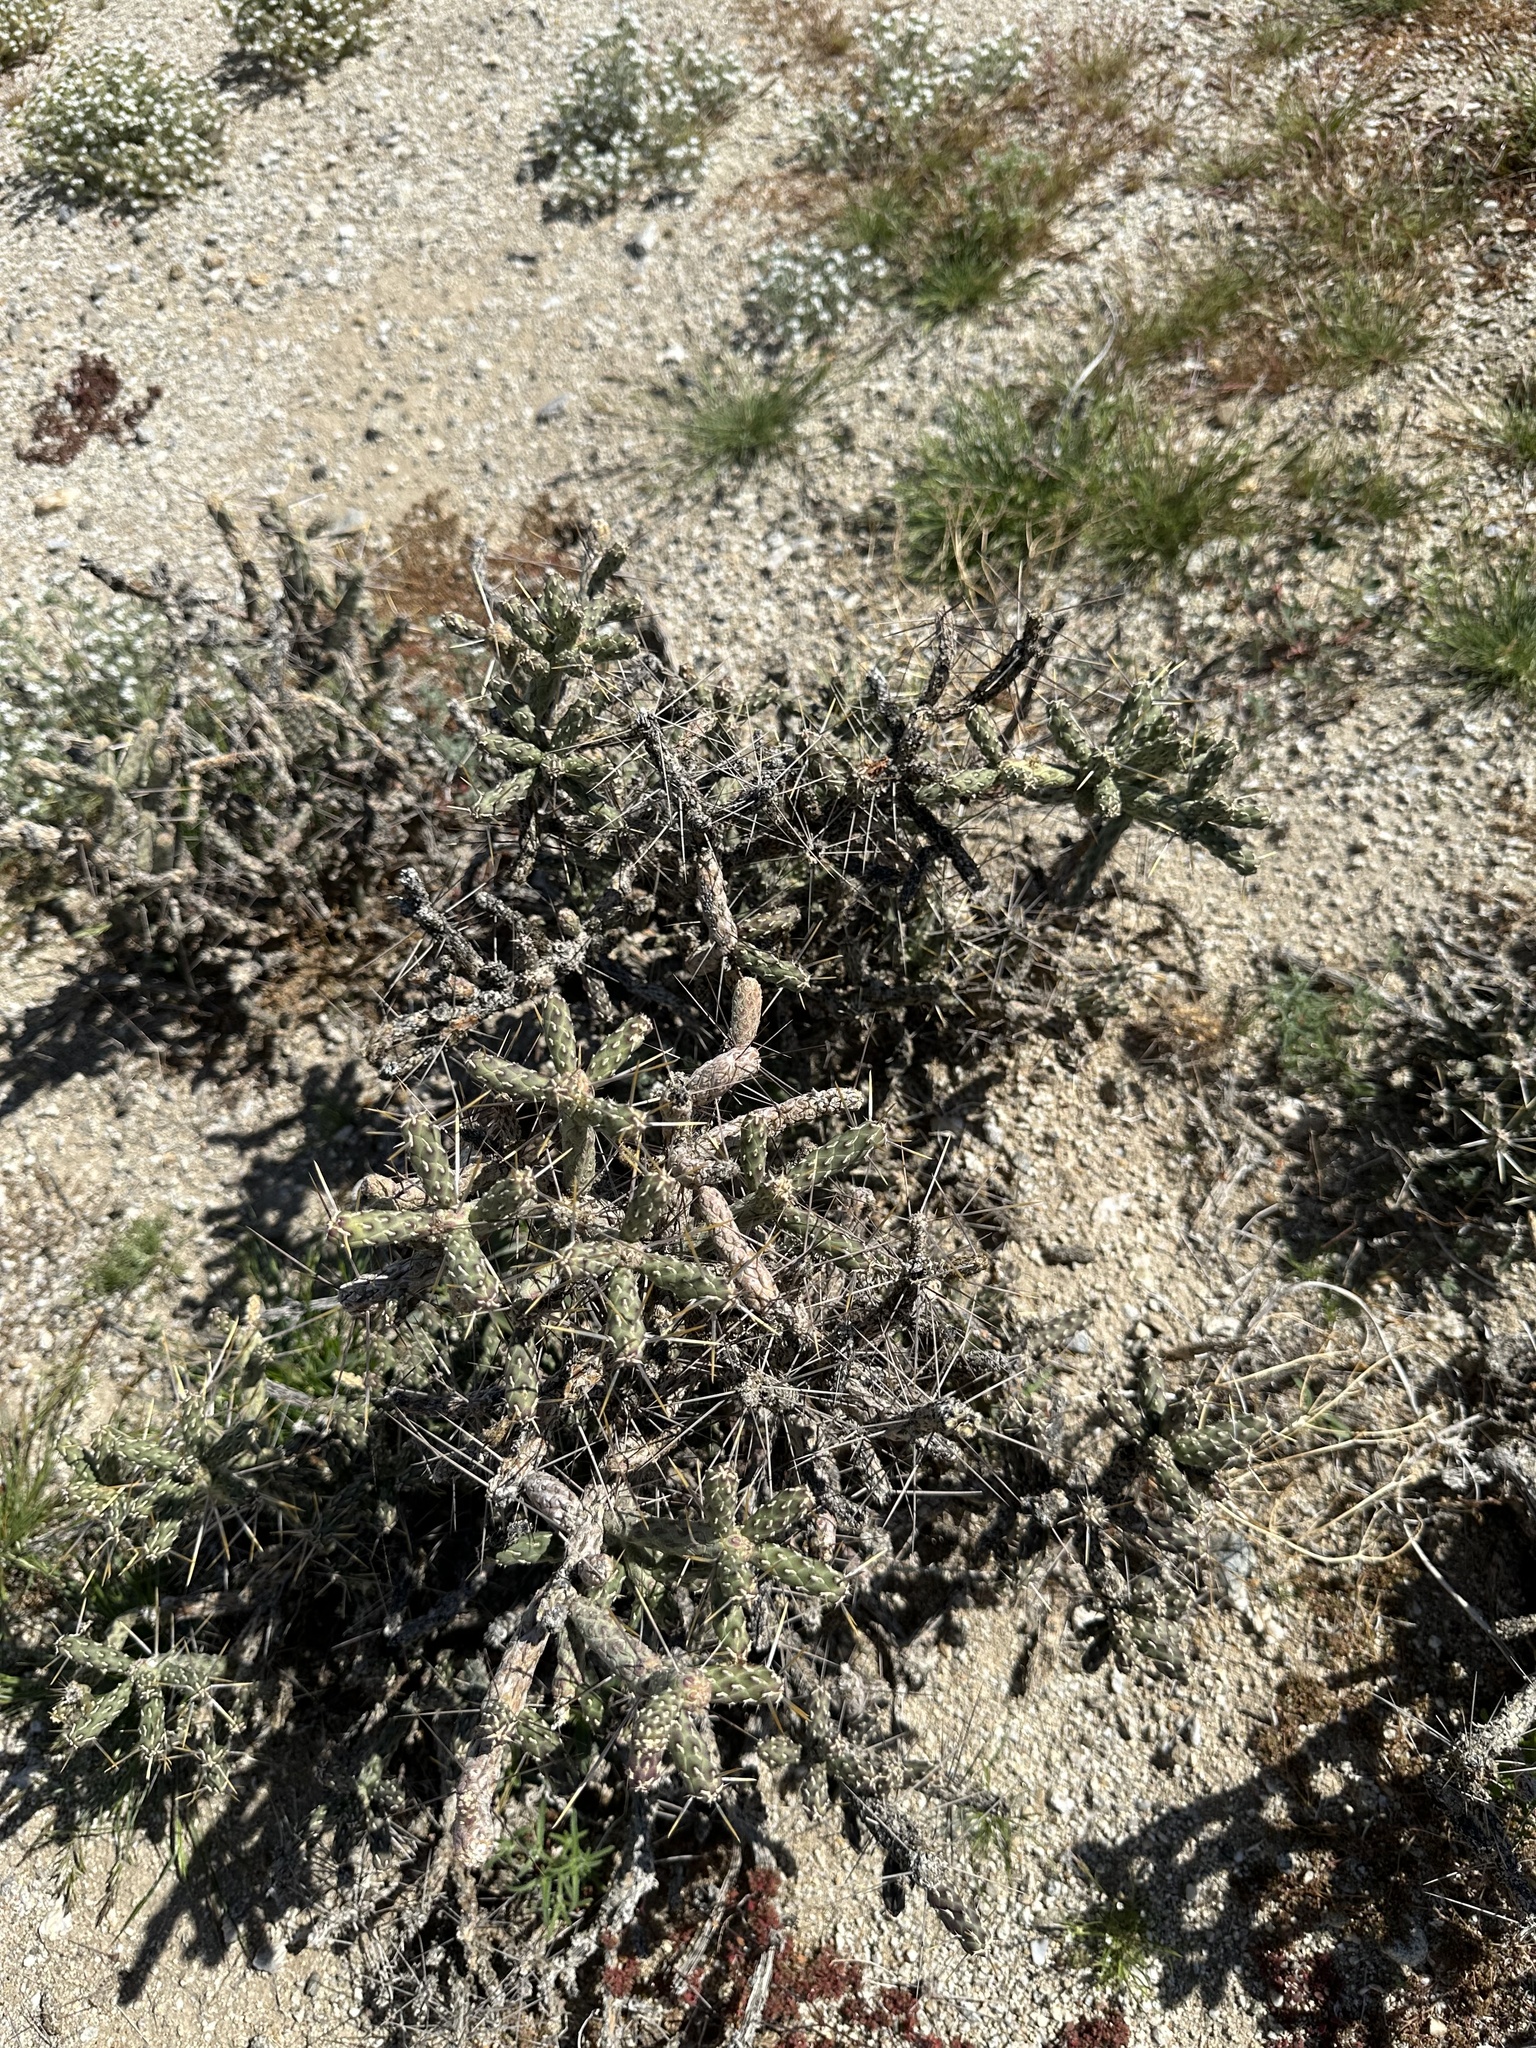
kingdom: Plantae
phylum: Tracheophyta
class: Magnoliopsida
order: Caryophyllales
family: Cactaceae
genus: Cylindropuntia
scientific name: Cylindropuntia ramosissima
